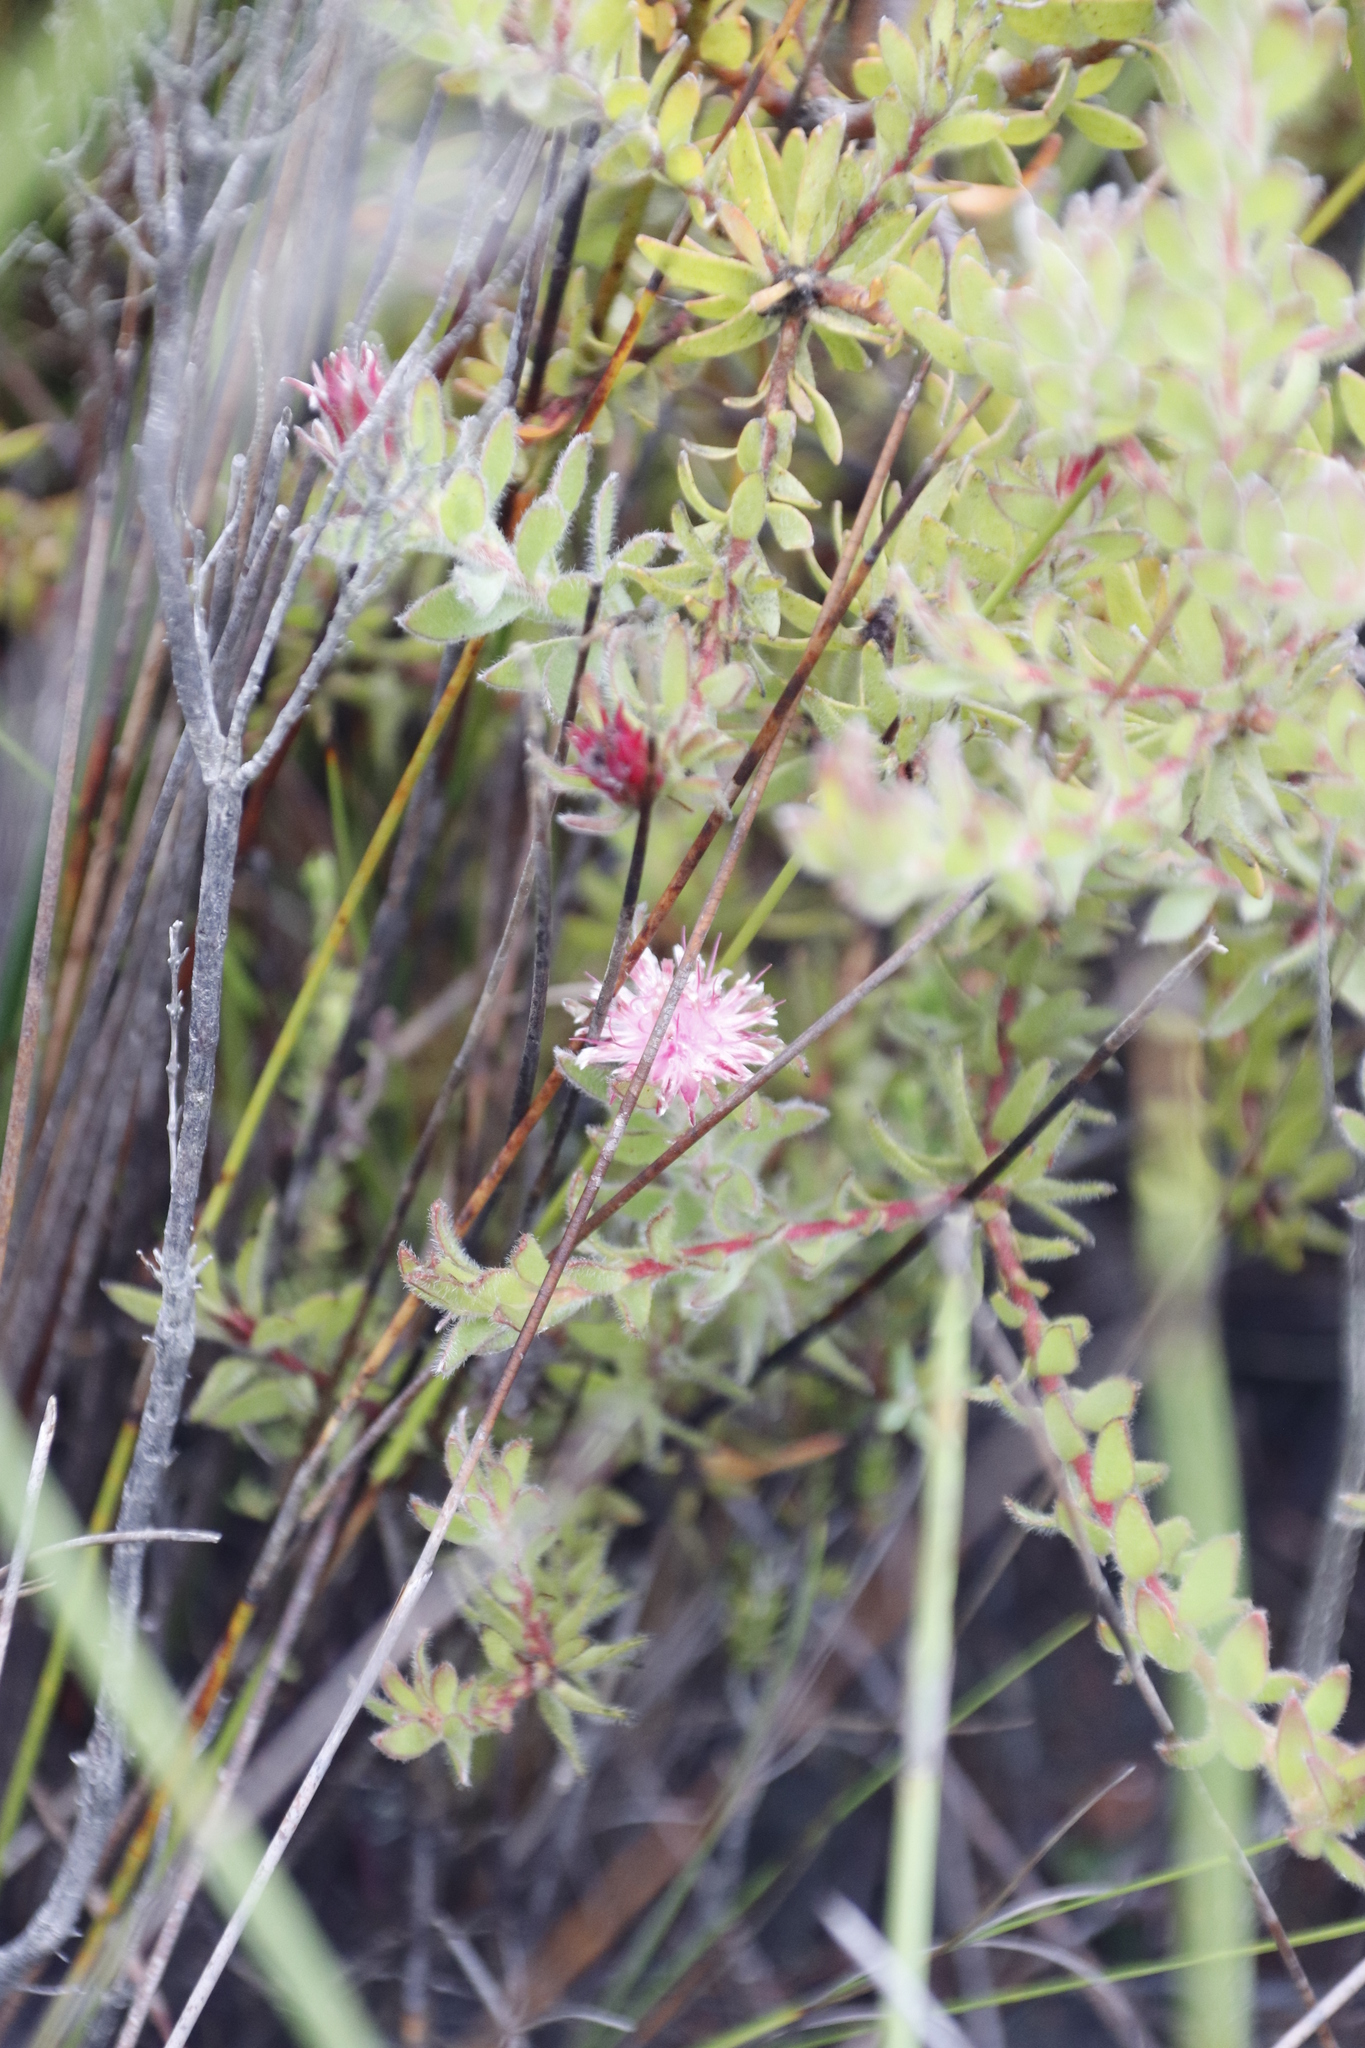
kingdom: Plantae
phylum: Tracheophyta
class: Magnoliopsida
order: Proteales
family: Proteaceae
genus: Diastella
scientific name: Diastella divaricata
